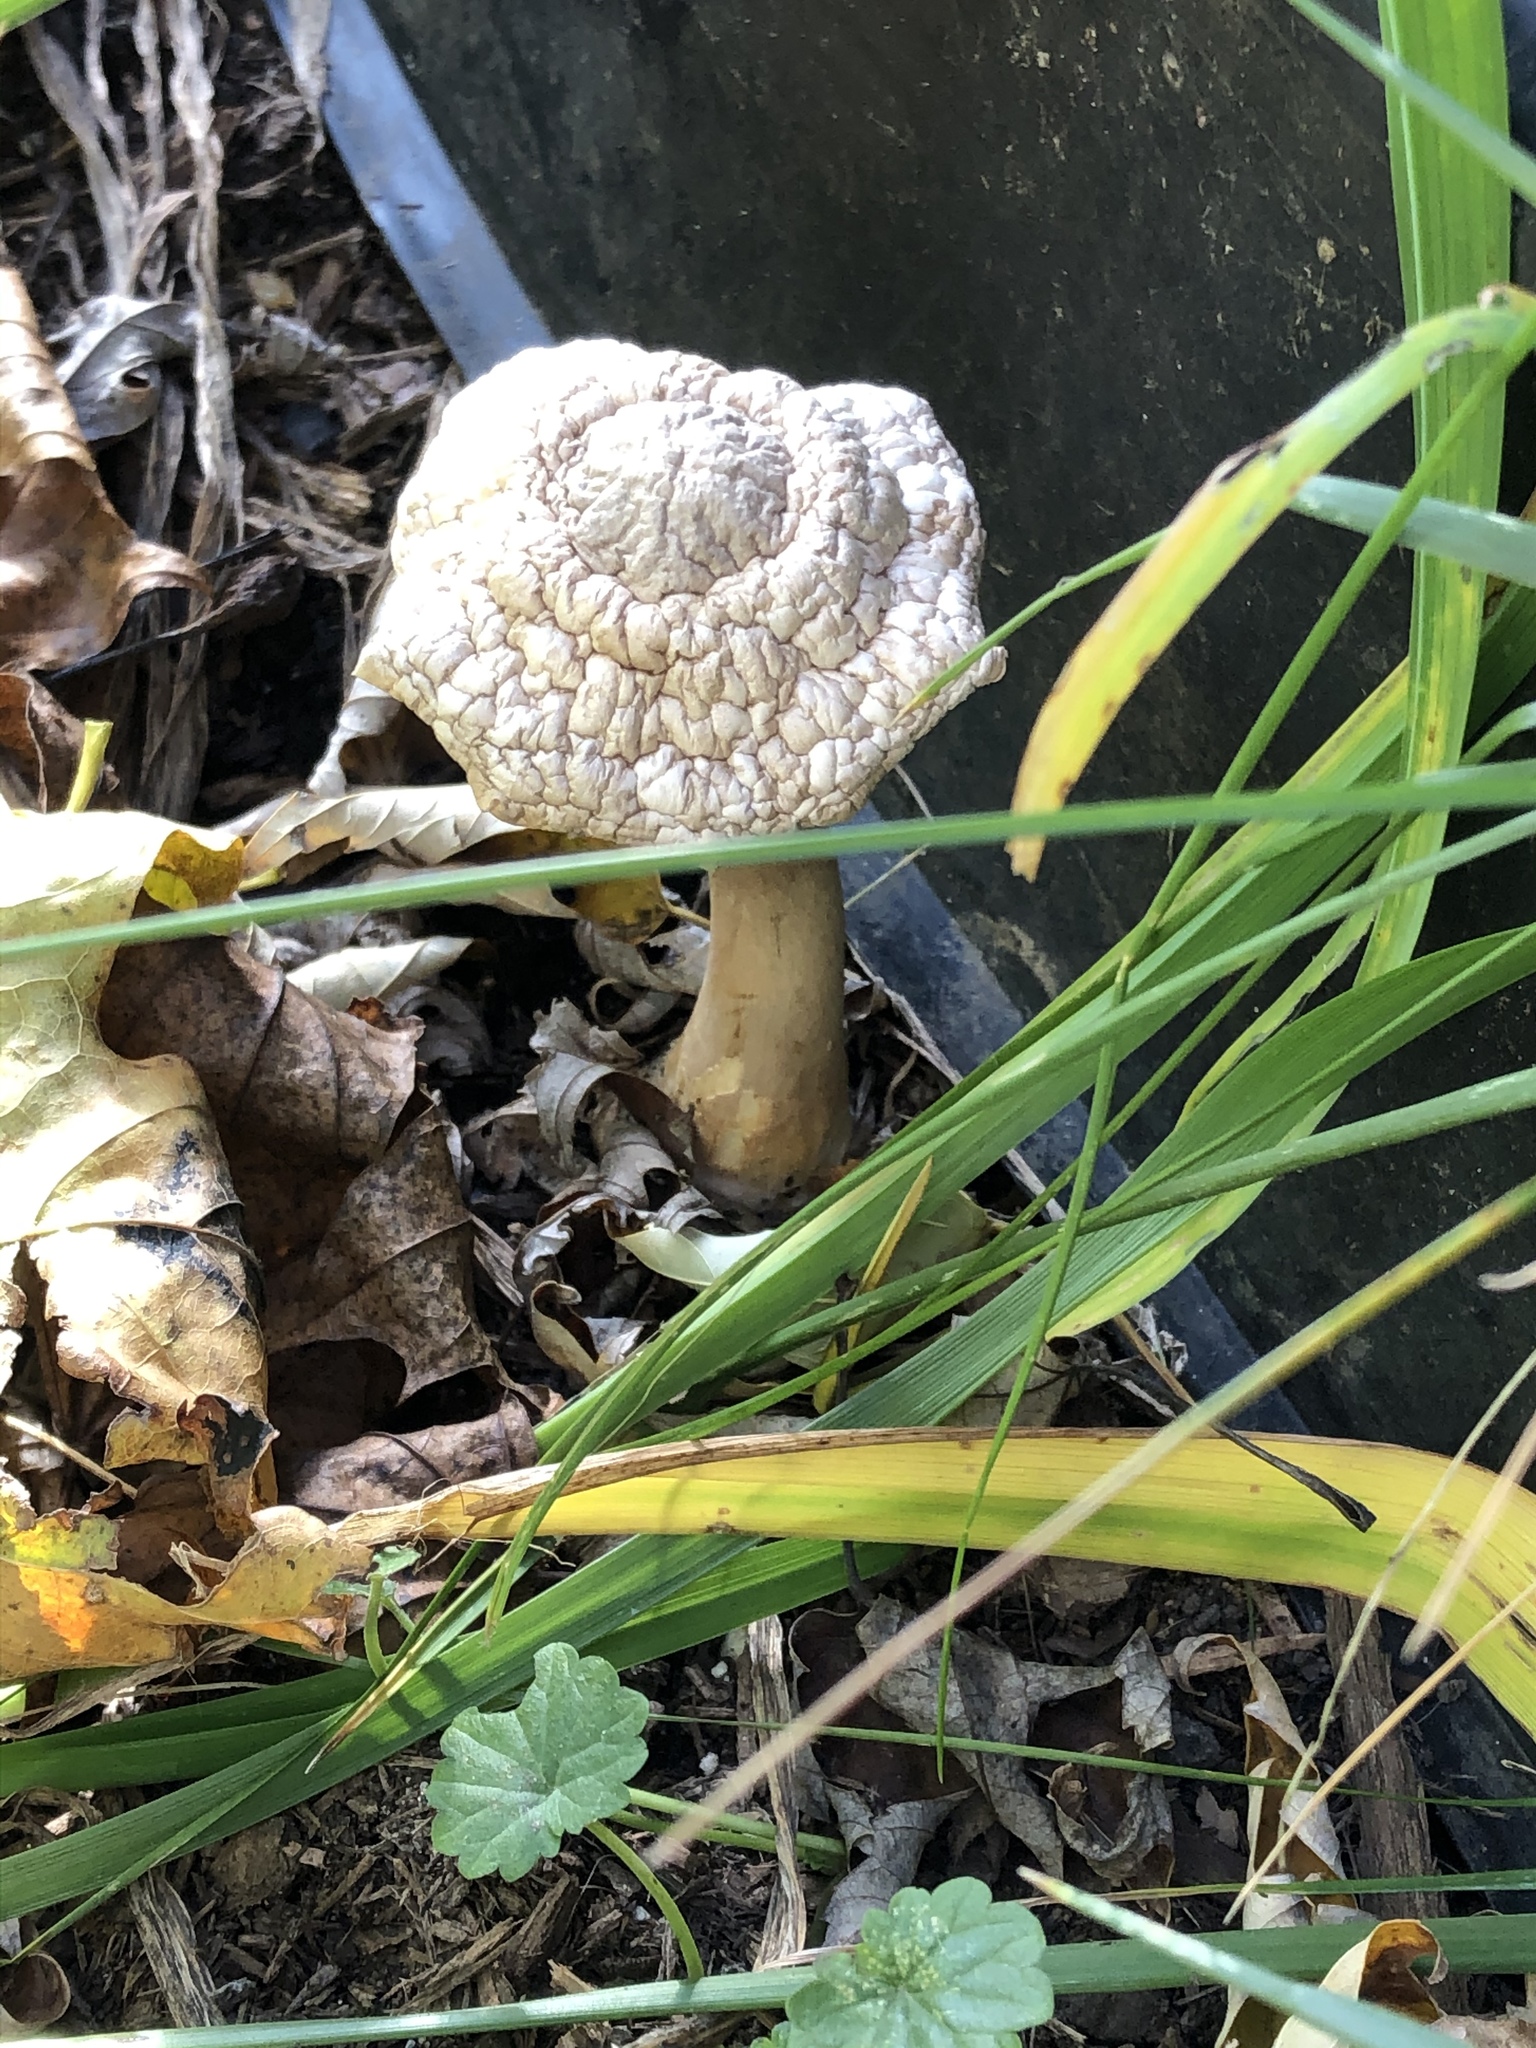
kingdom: Fungi
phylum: Basidiomycota
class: Agaricomycetes
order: Agaricales
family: Agaricaceae
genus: Leucoagaricus
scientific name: Leucoagaricus leucothites
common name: White dapperling
